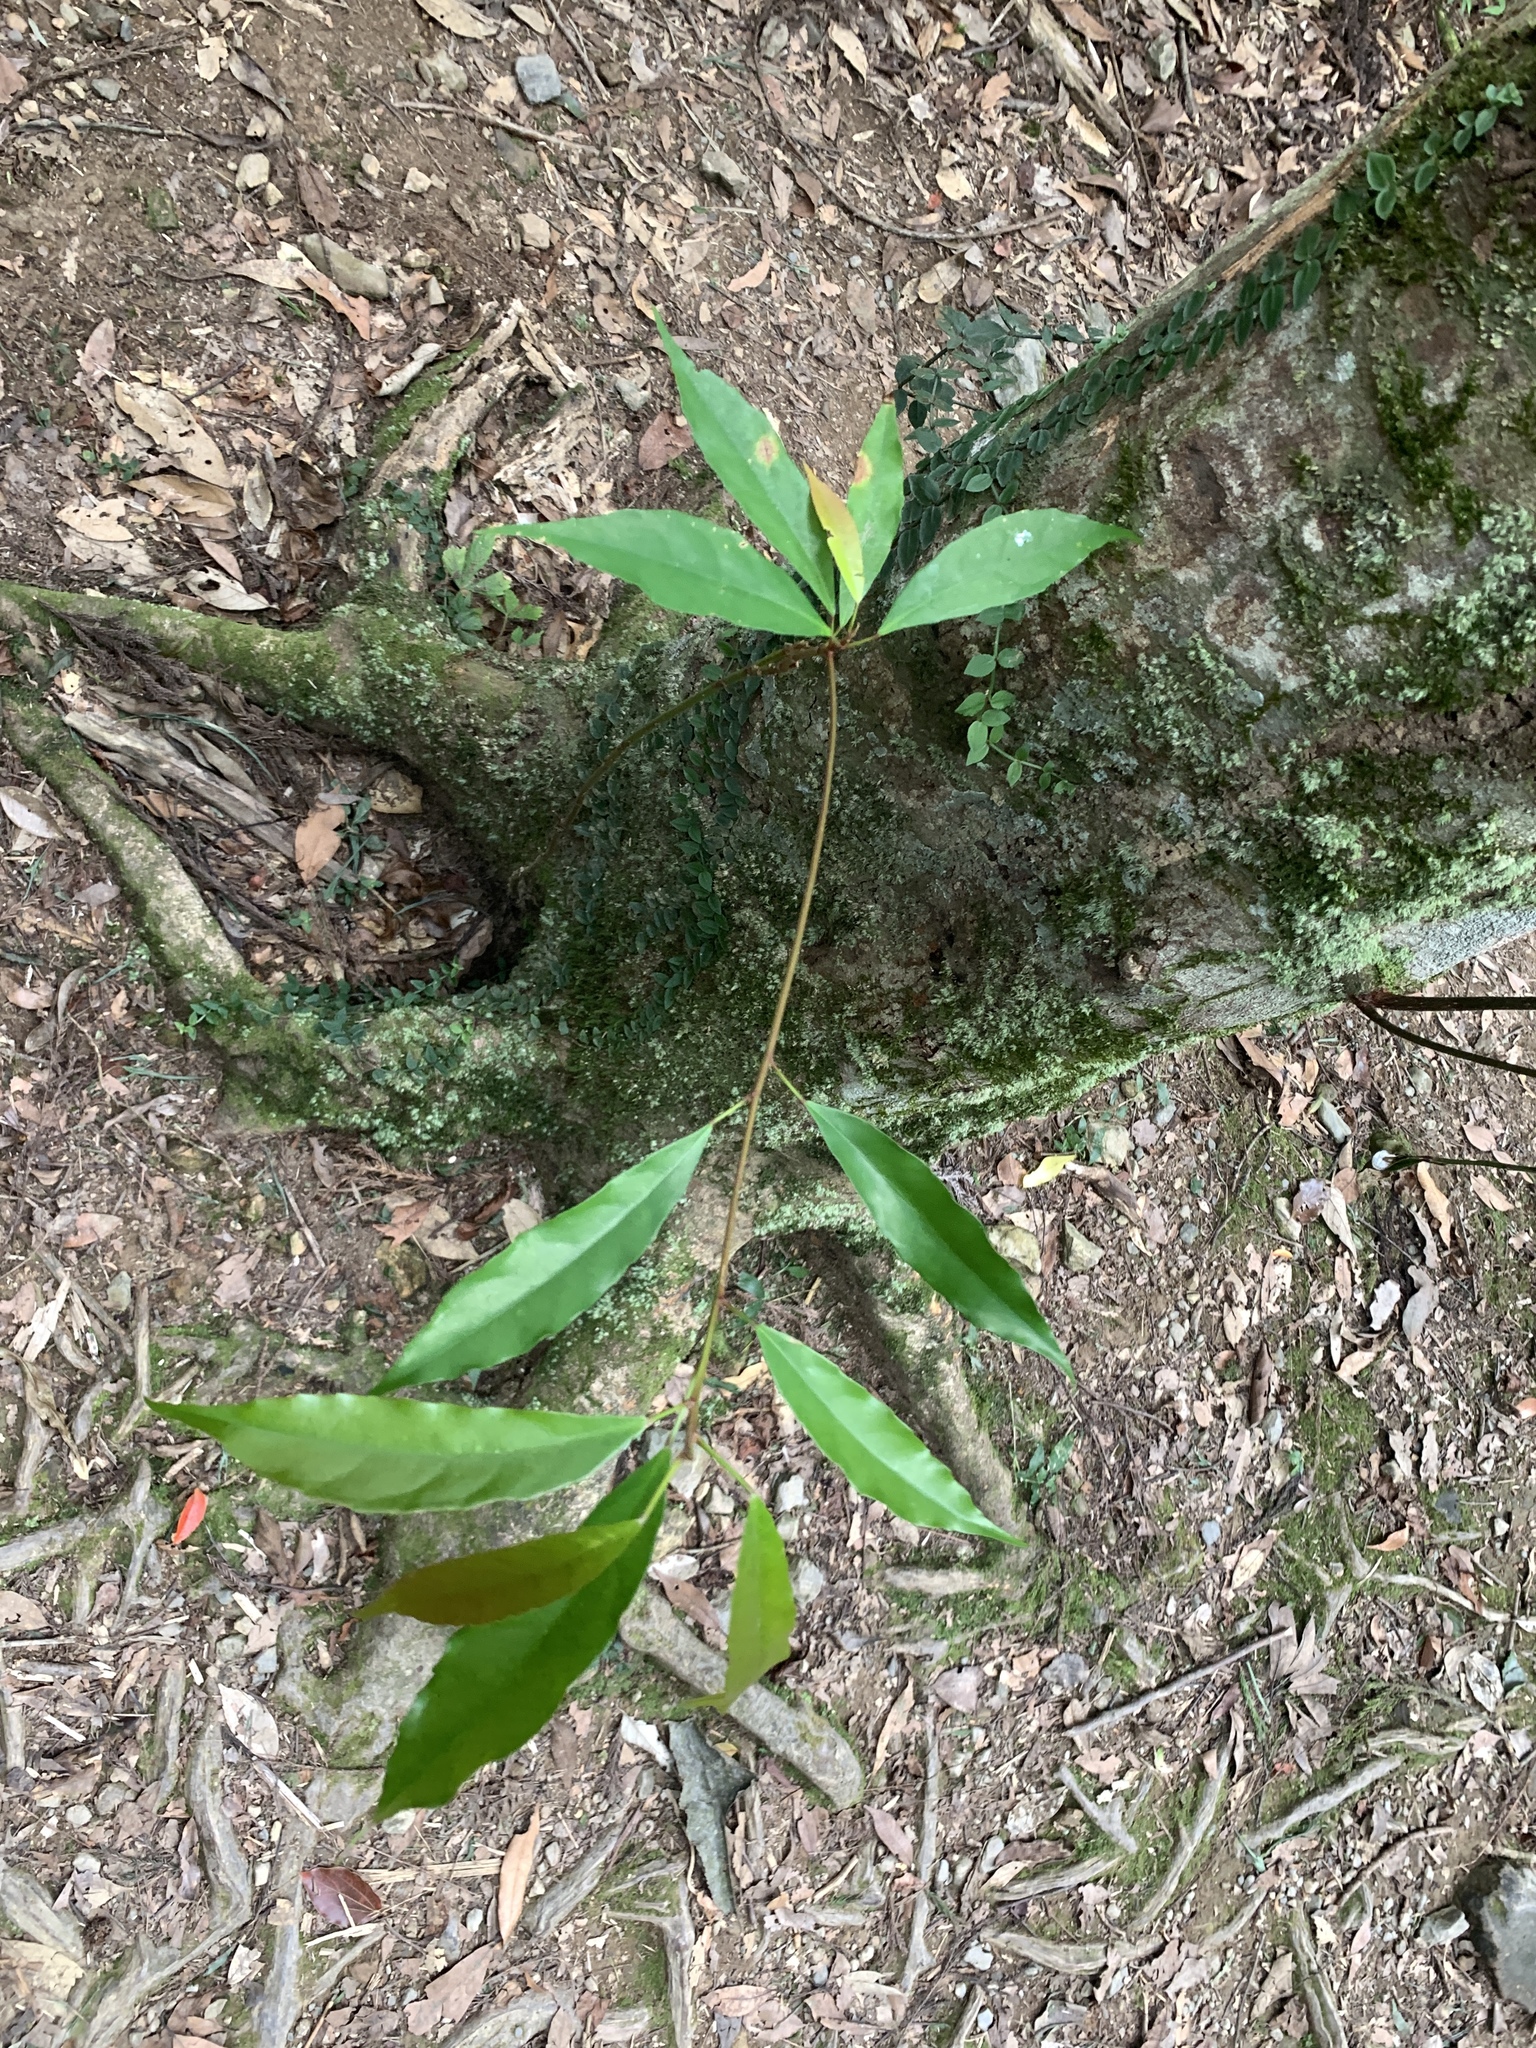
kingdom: Plantae
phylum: Tracheophyta
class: Magnoliopsida
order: Oxalidales
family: Elaeocarpaceae
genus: Elaeocarpus
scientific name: Elaeocarpus japonicus
